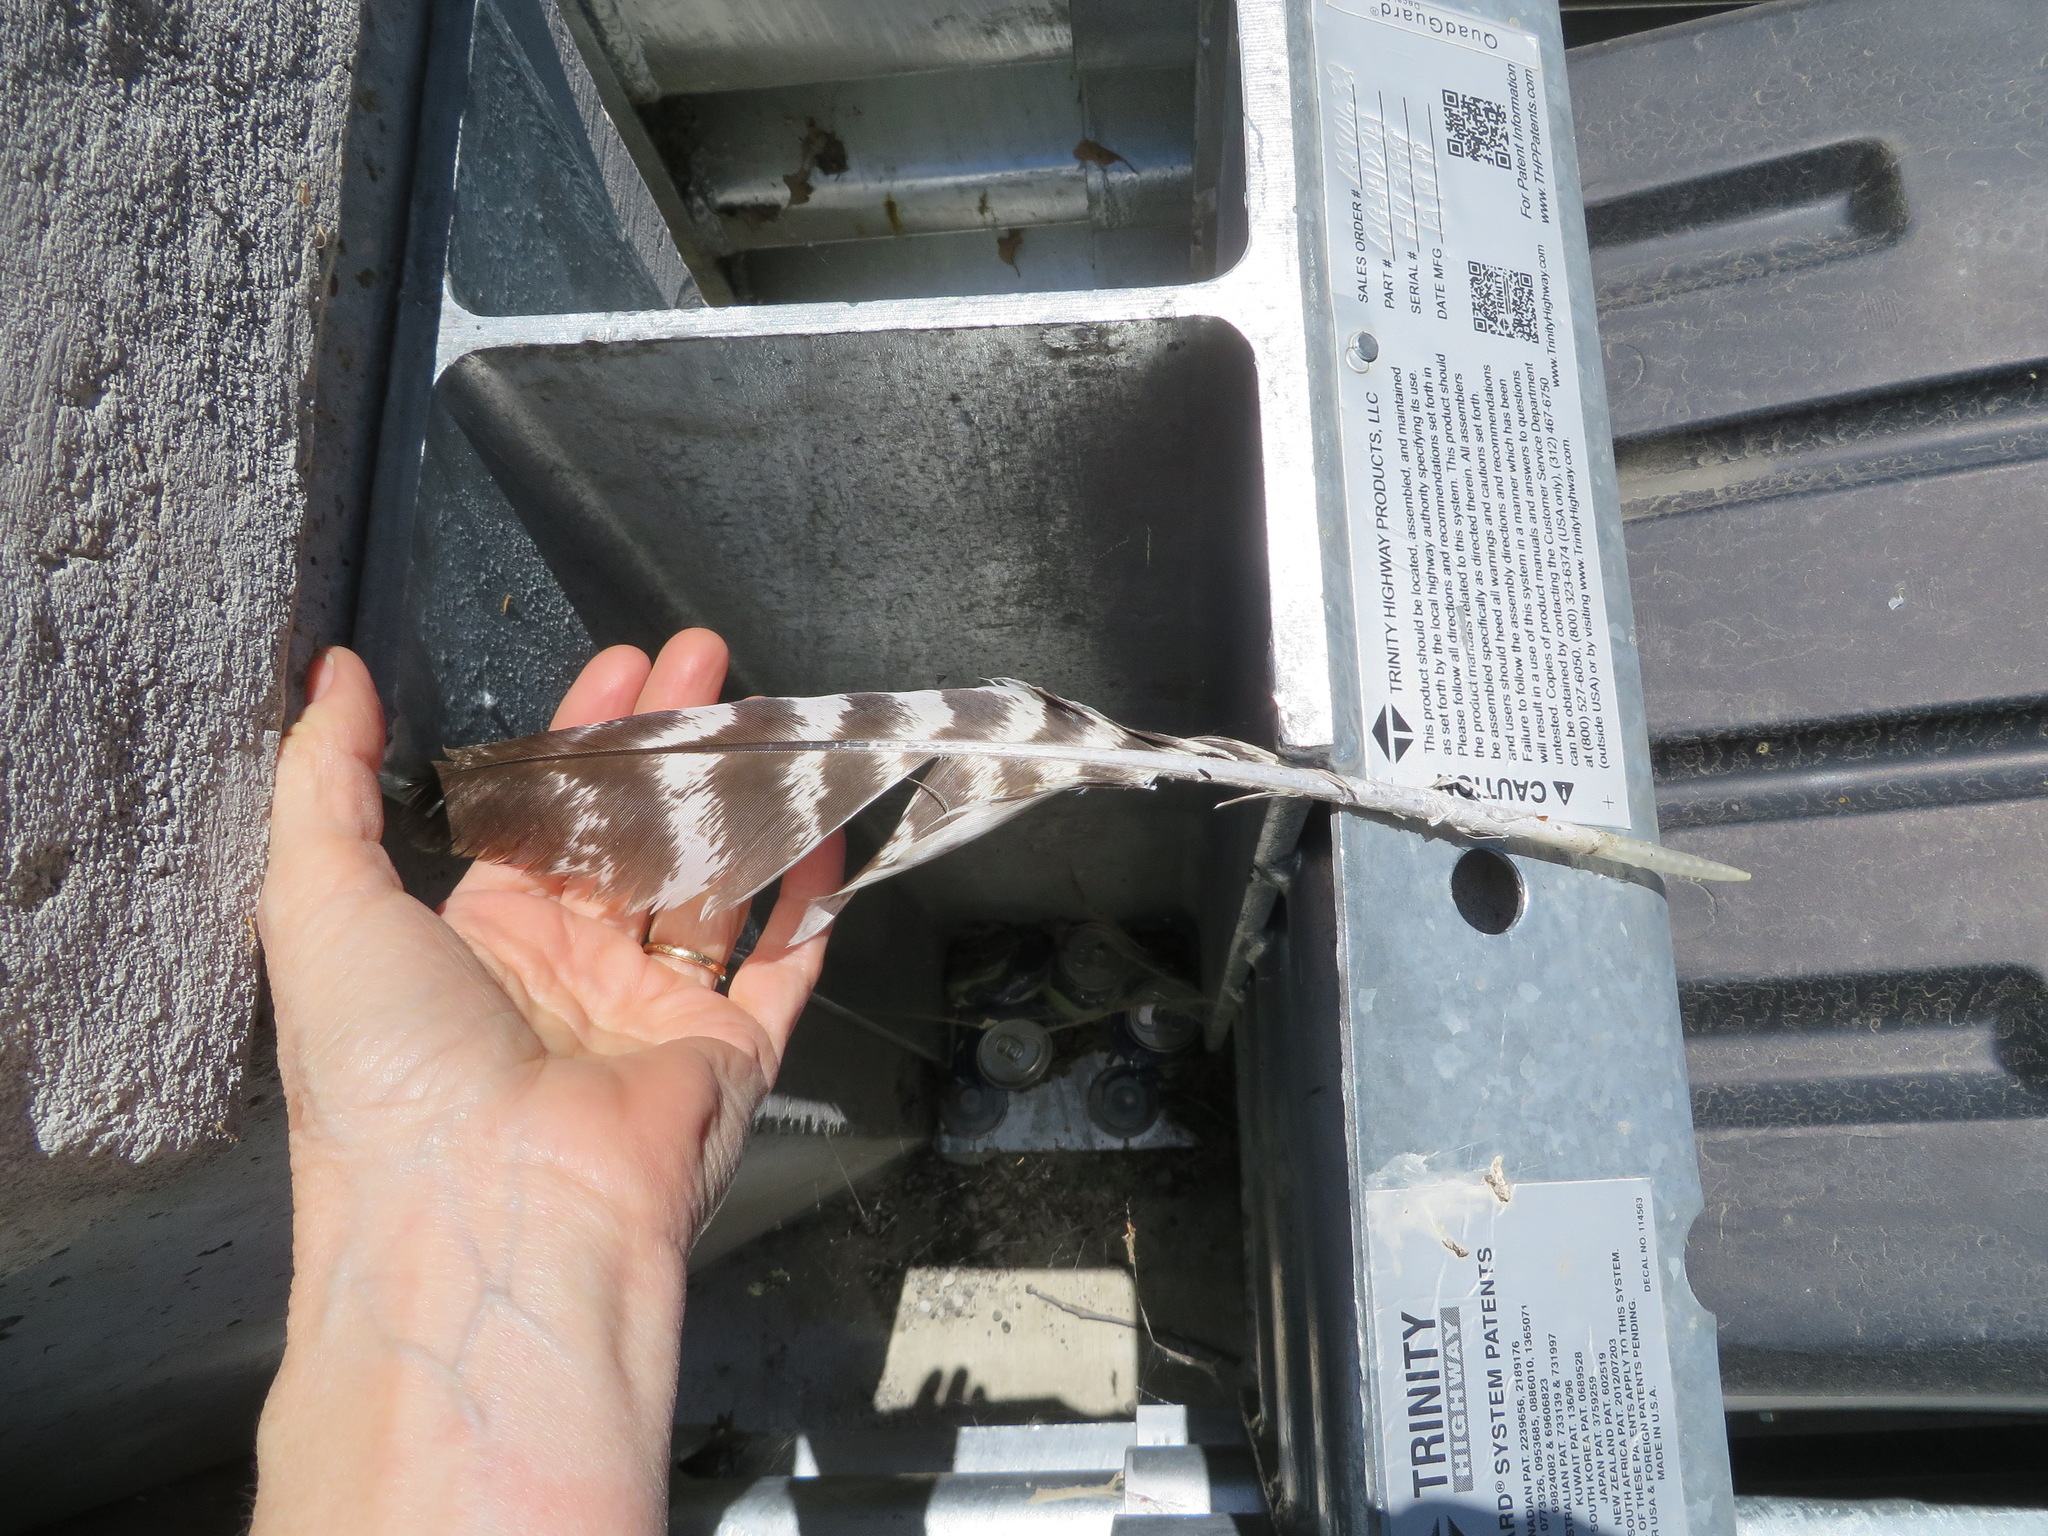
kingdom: Animalia
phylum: Chordata
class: Aves
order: Galliformes
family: Phasianidae
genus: Meleagris
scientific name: Meleagris gallopavo
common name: Wild turkey
